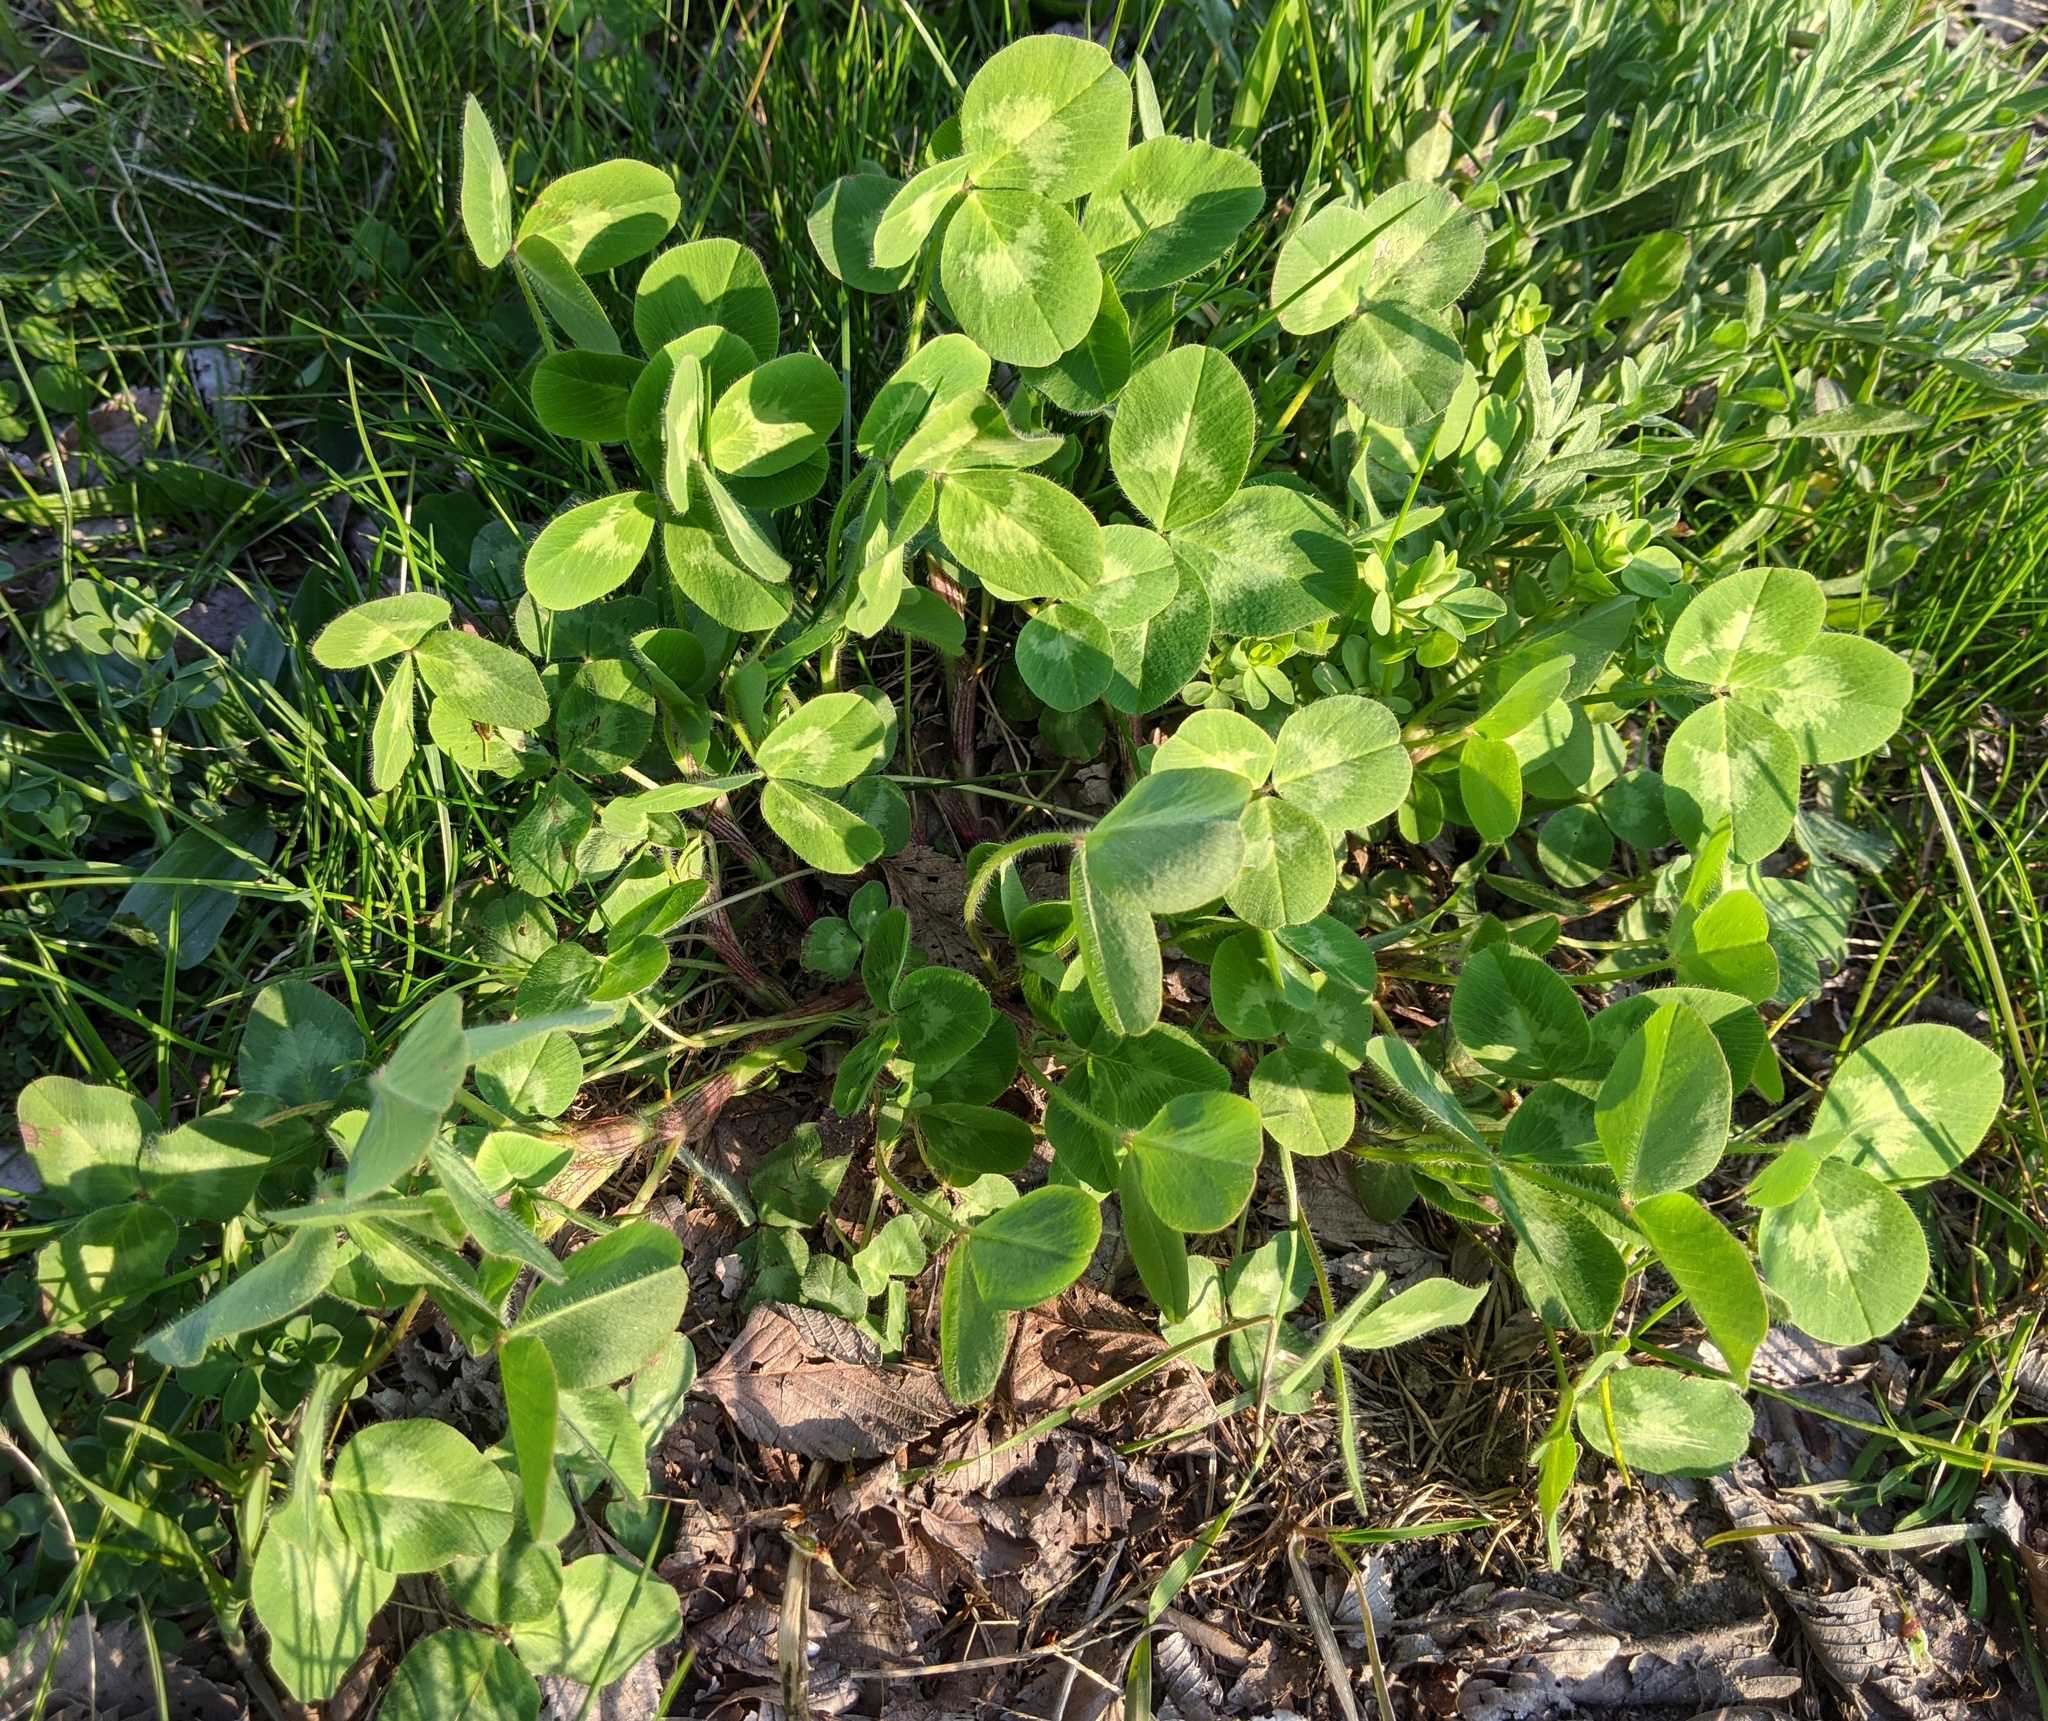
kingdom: Plantae
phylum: Tracheophyta
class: Magnoliopsida
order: Fabales
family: Fabaceae
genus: Trifolium
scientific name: Trifolium pratense
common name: Red clover
